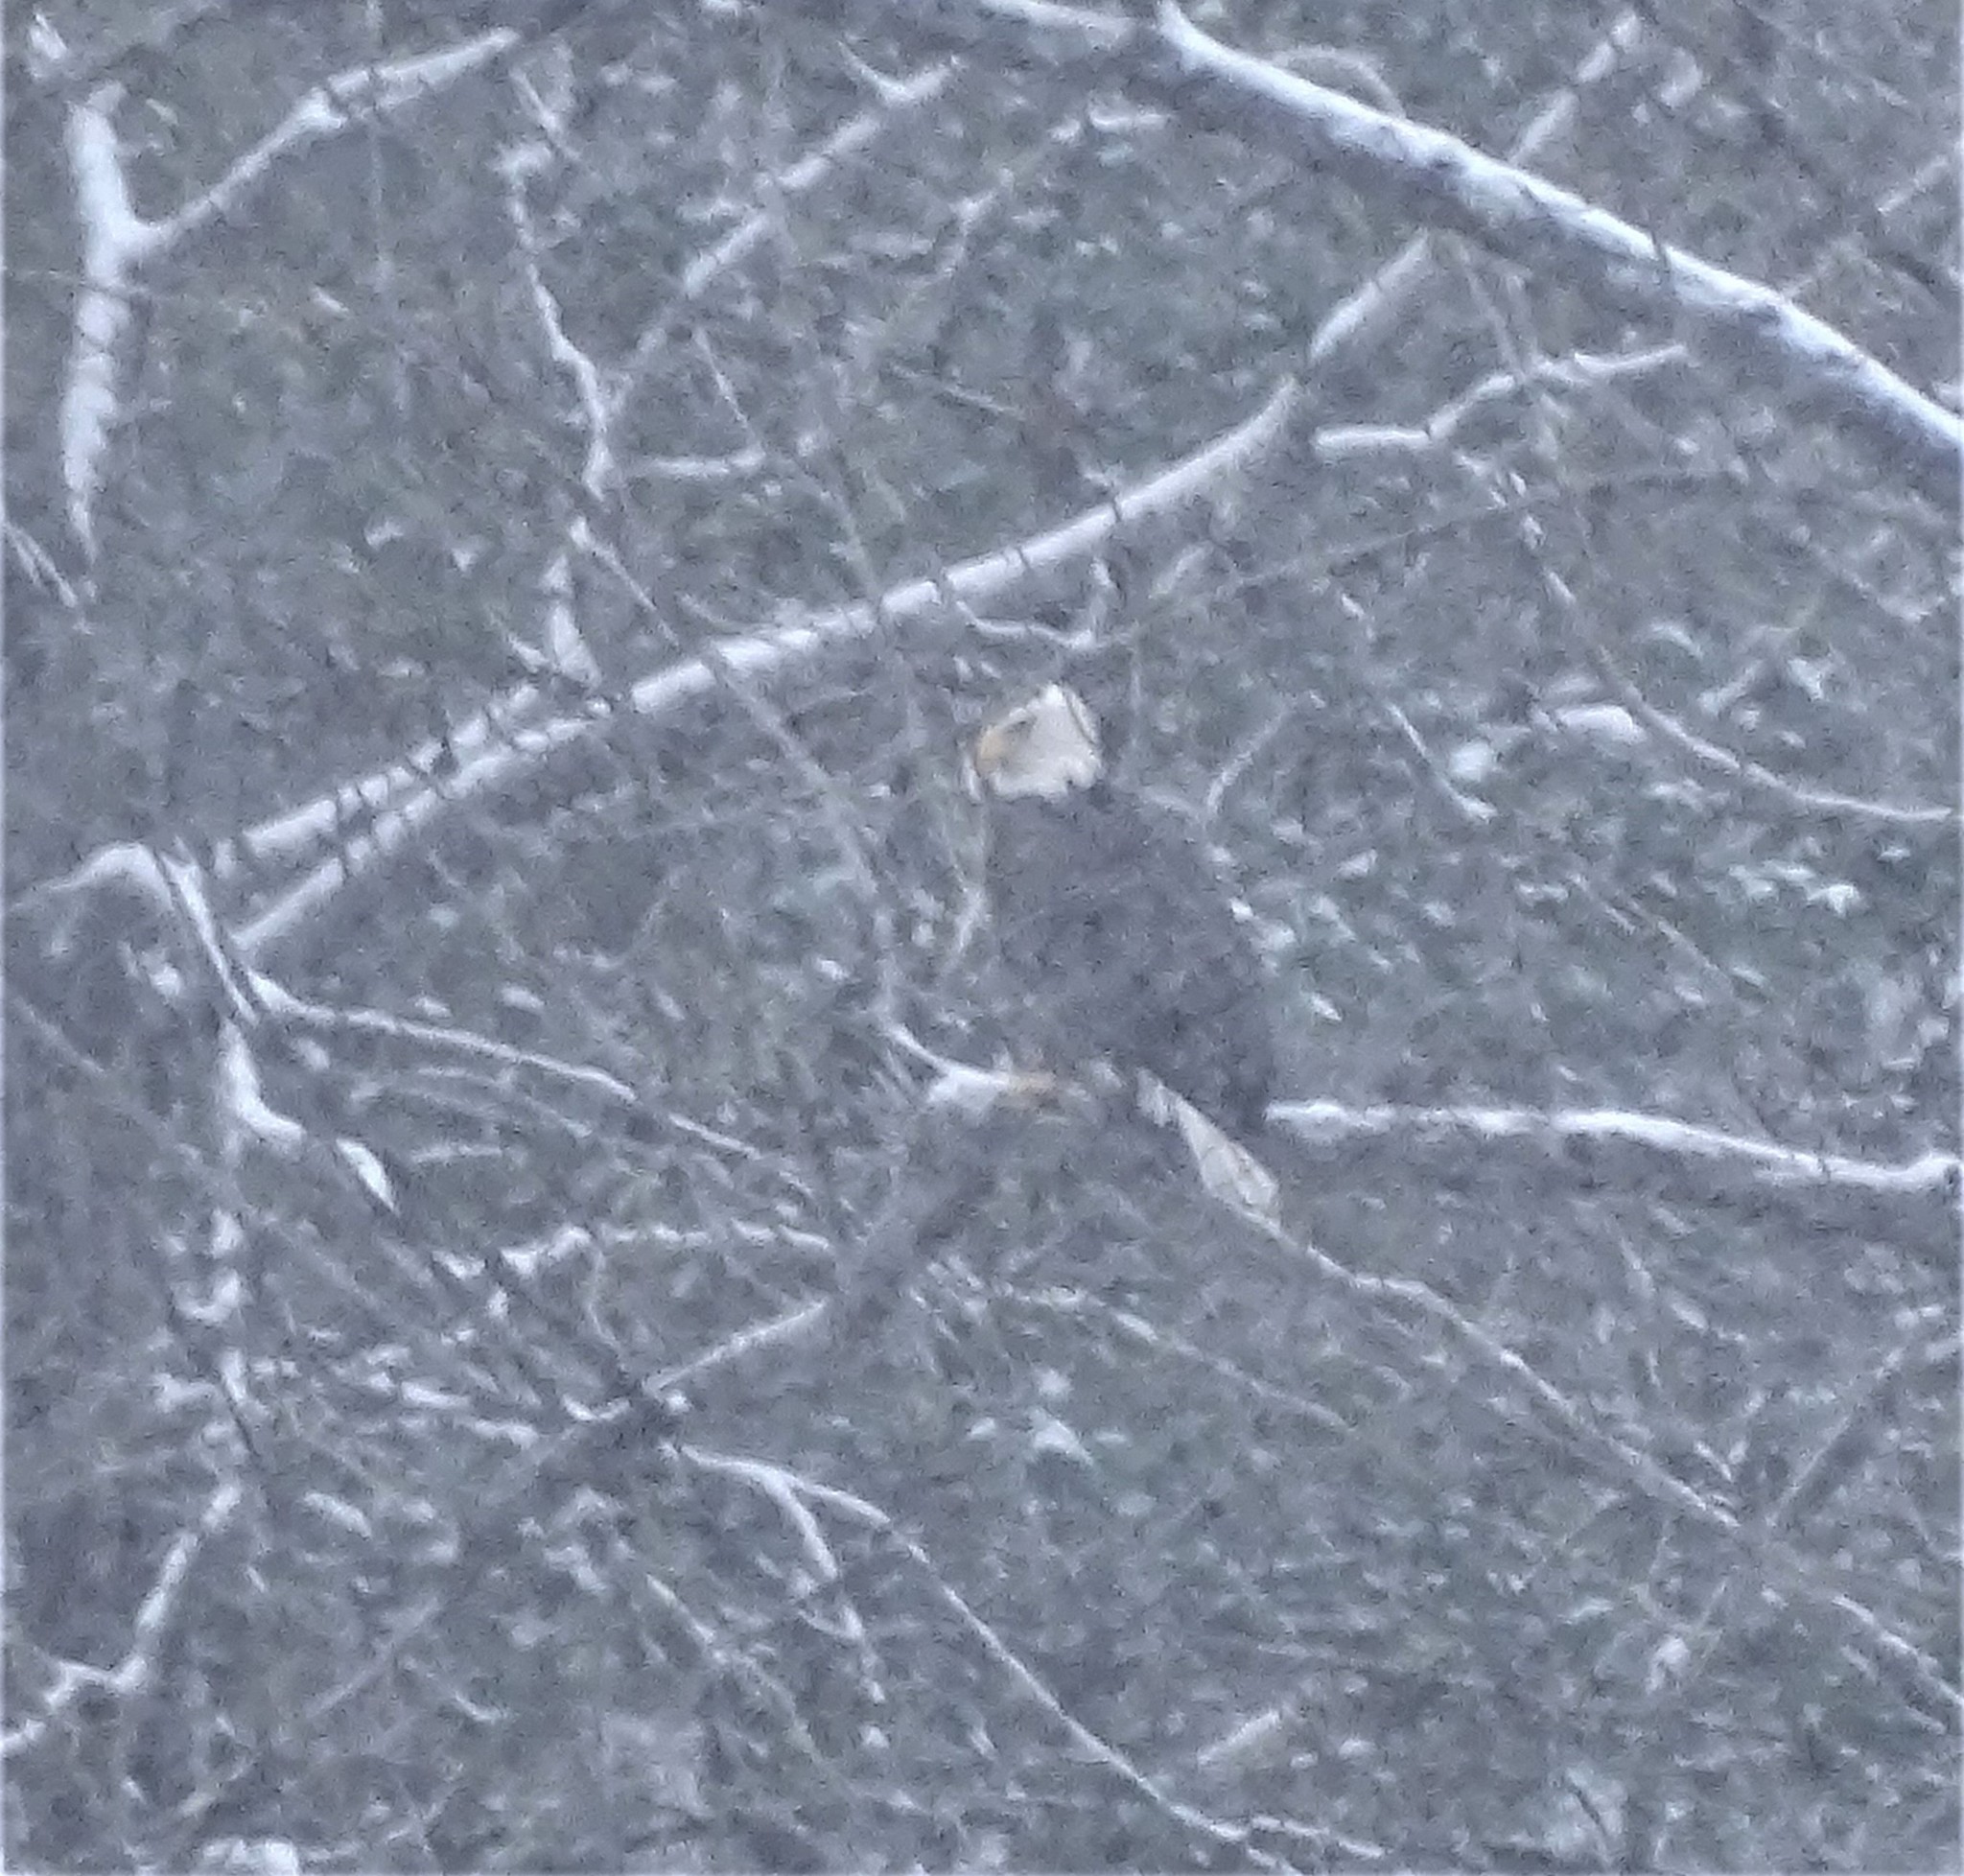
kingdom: Animalia
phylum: Chordata
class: Aves
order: Accipitriformes
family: Accipitridae
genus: Haliaeetus
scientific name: Haliaeetus leucocephalus
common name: Bald eagle
